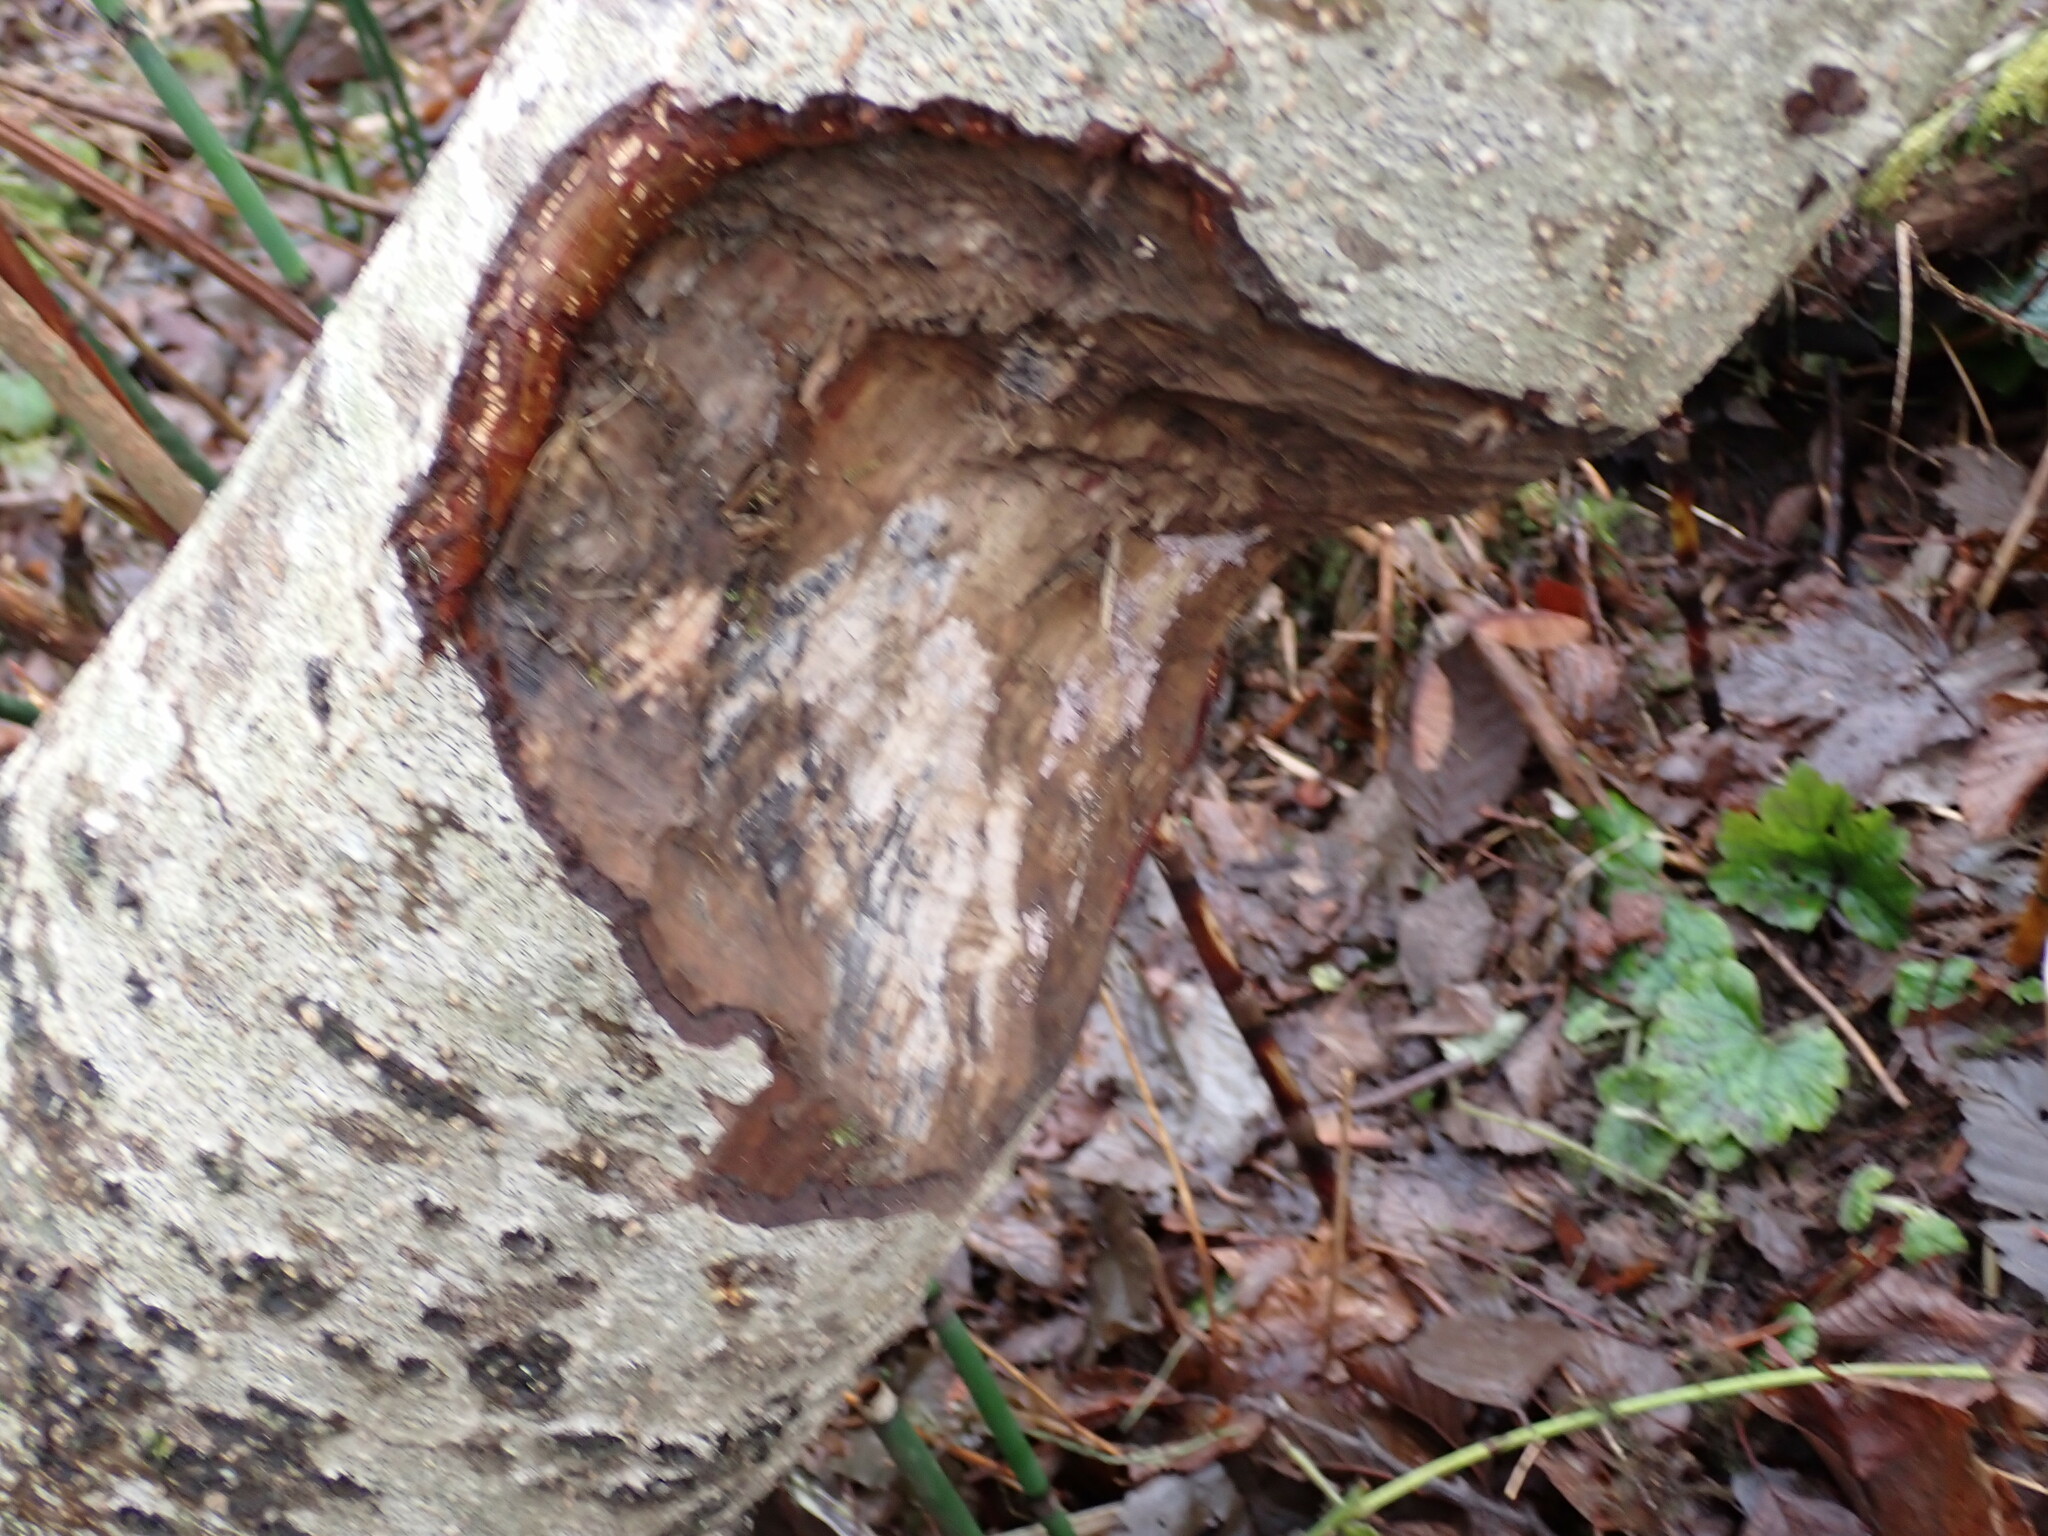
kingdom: Animalia
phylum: Chordata
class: Mammalia
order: Rodentia
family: Castoridae
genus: Castor
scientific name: Castor canadensis
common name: American beaver
